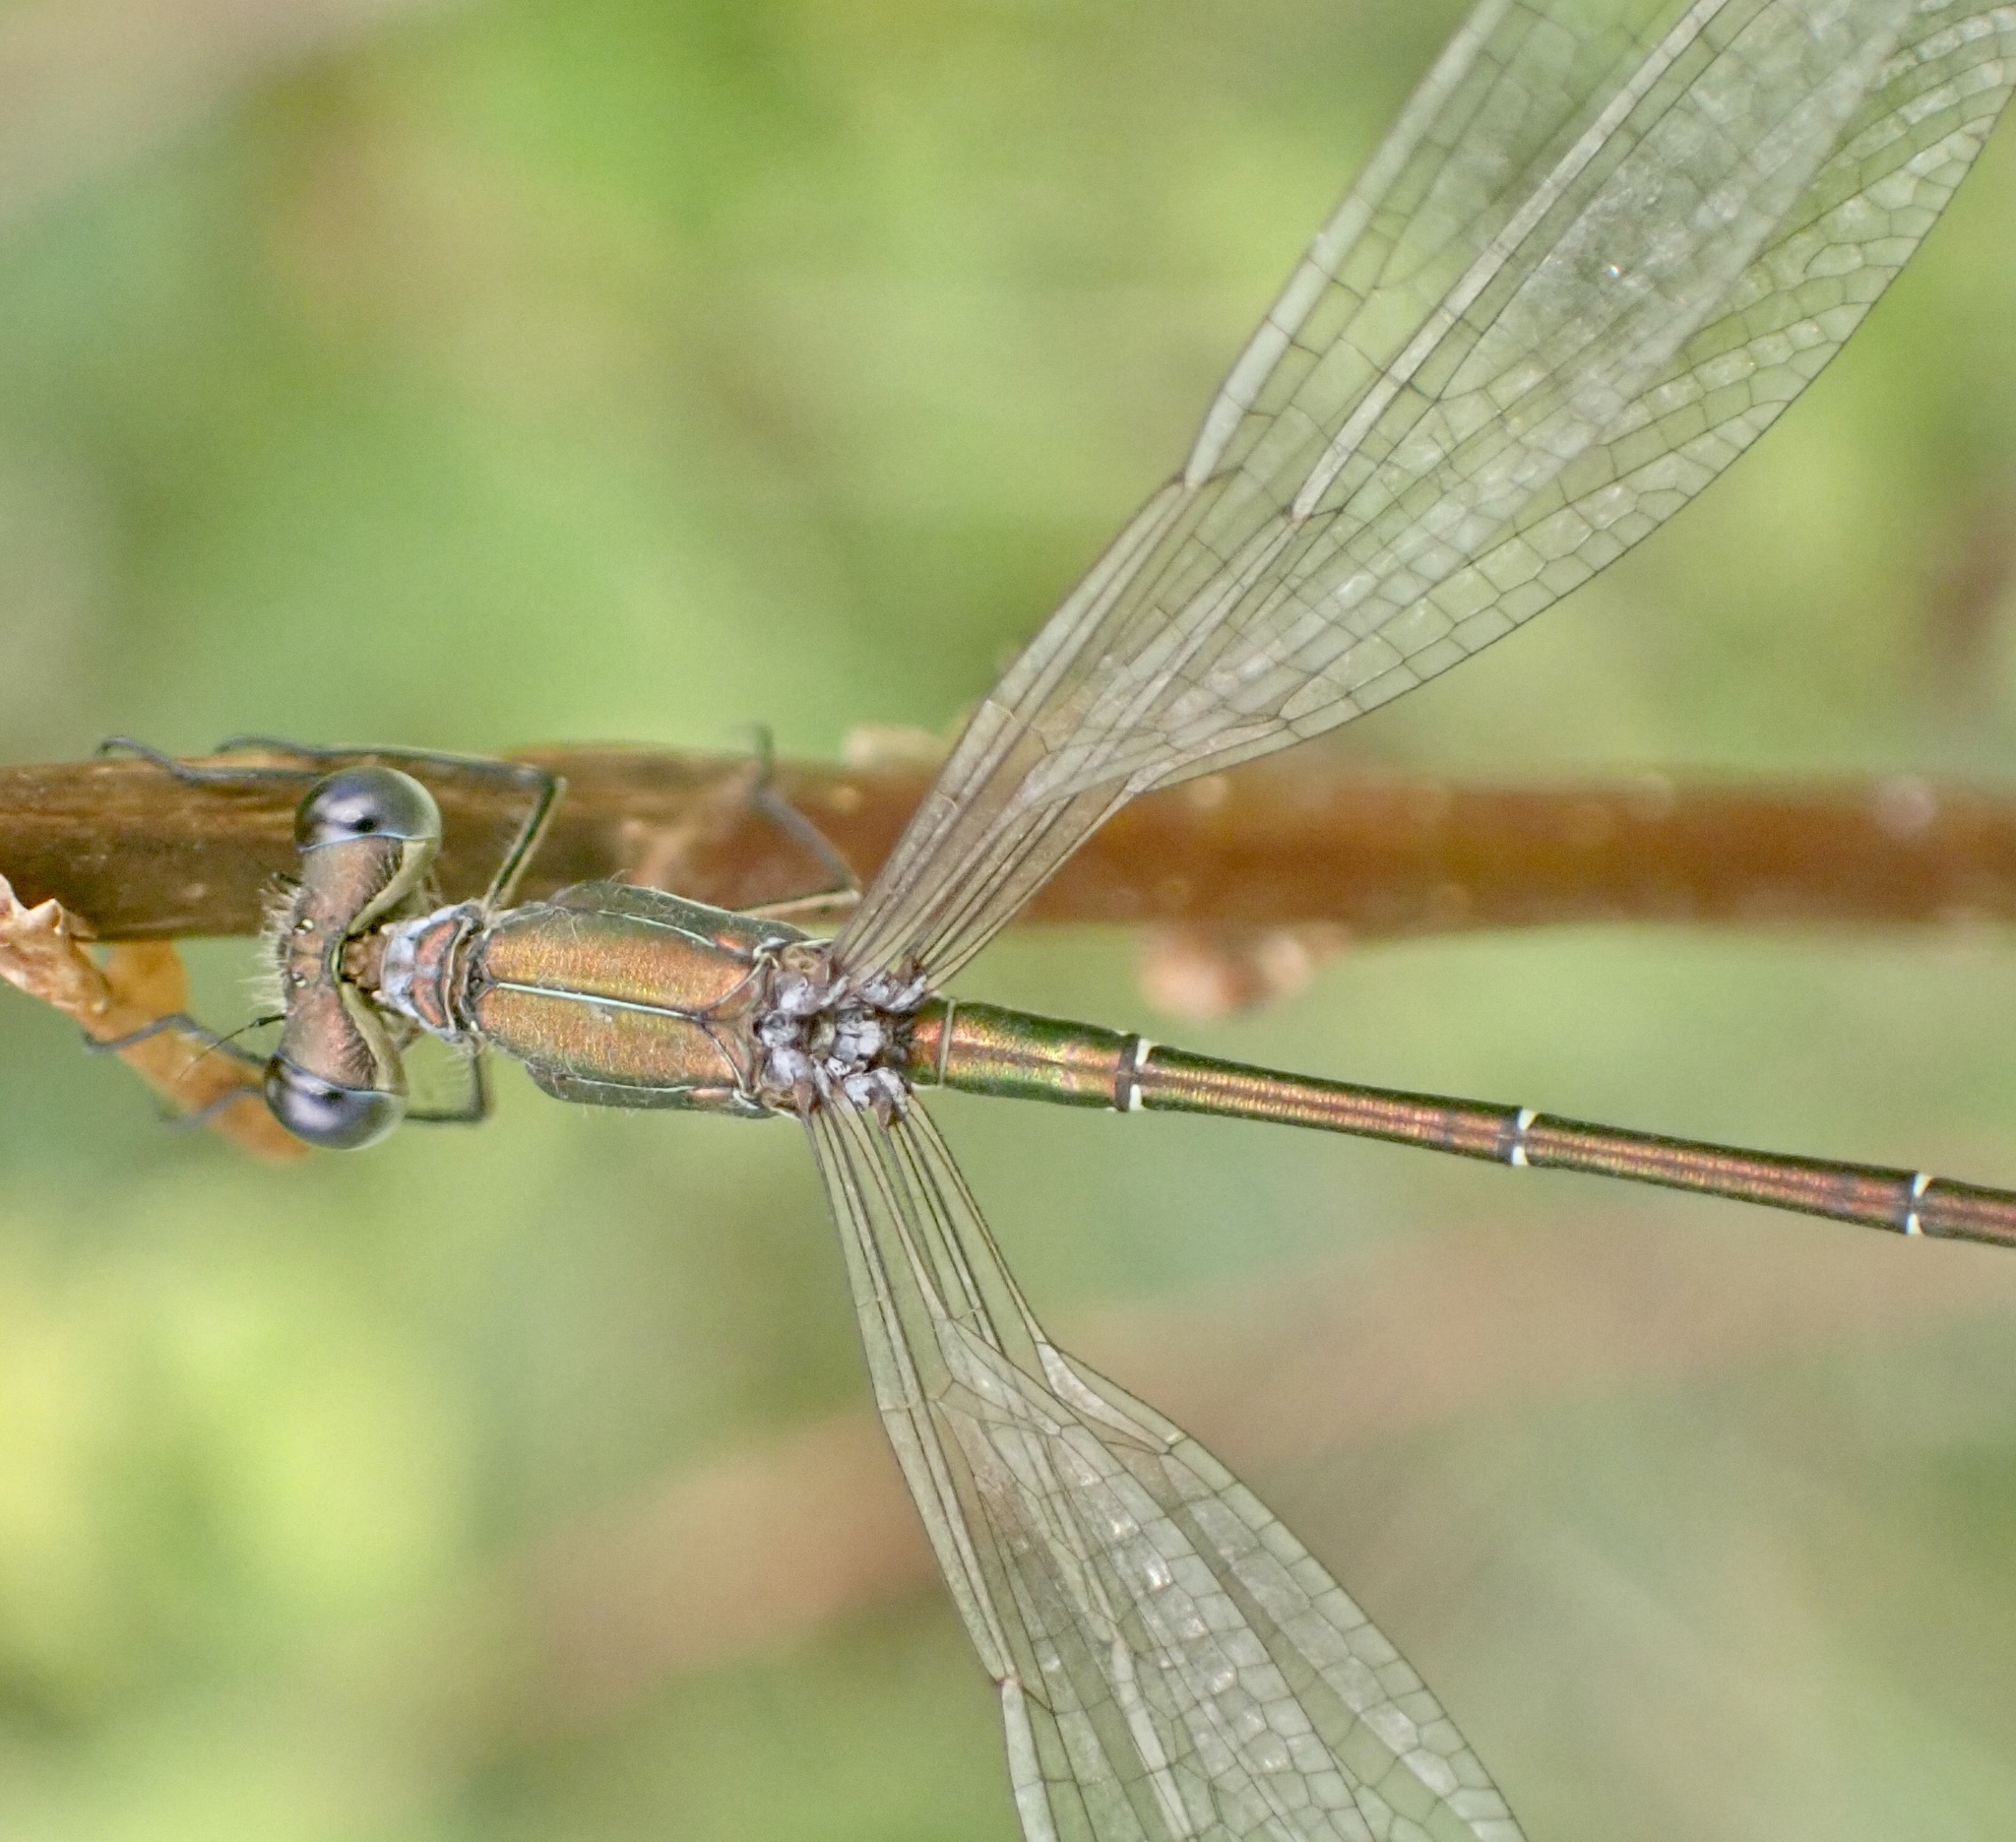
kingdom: Animalia
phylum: Arthropoda
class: Insecta
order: Odonata
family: Lestidae
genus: Lestes
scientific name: Lestes virens
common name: Small emerald spreadwing
